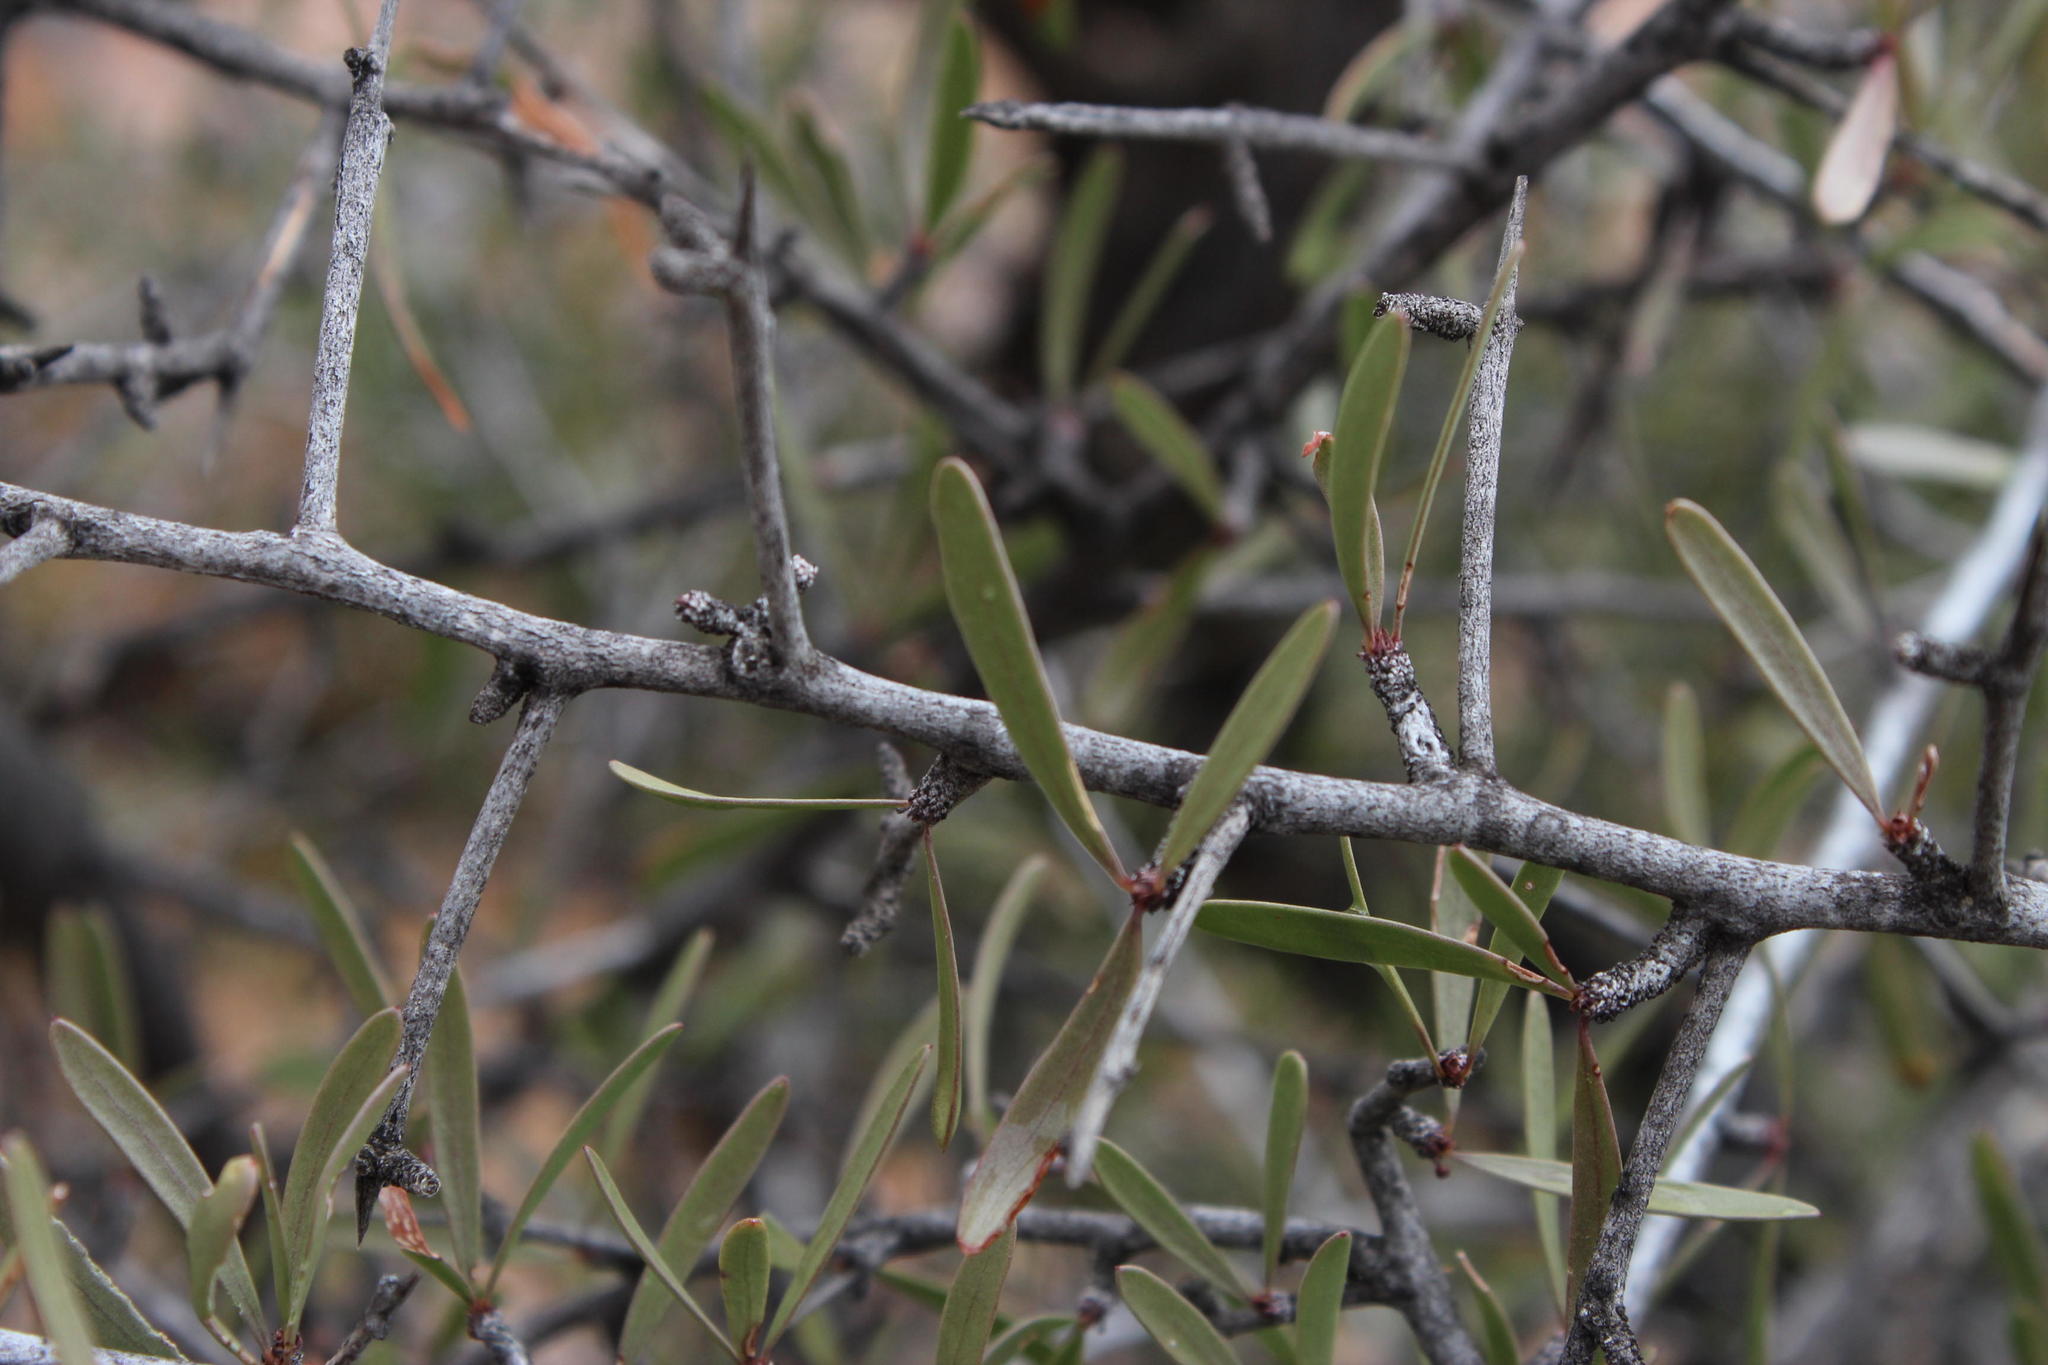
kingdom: Plantae
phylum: Tracheophyta
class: Magnoliopsida
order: Celastrales
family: Celastraceae
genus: Gymnosporia
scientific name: Gymnosporia gariepensis
